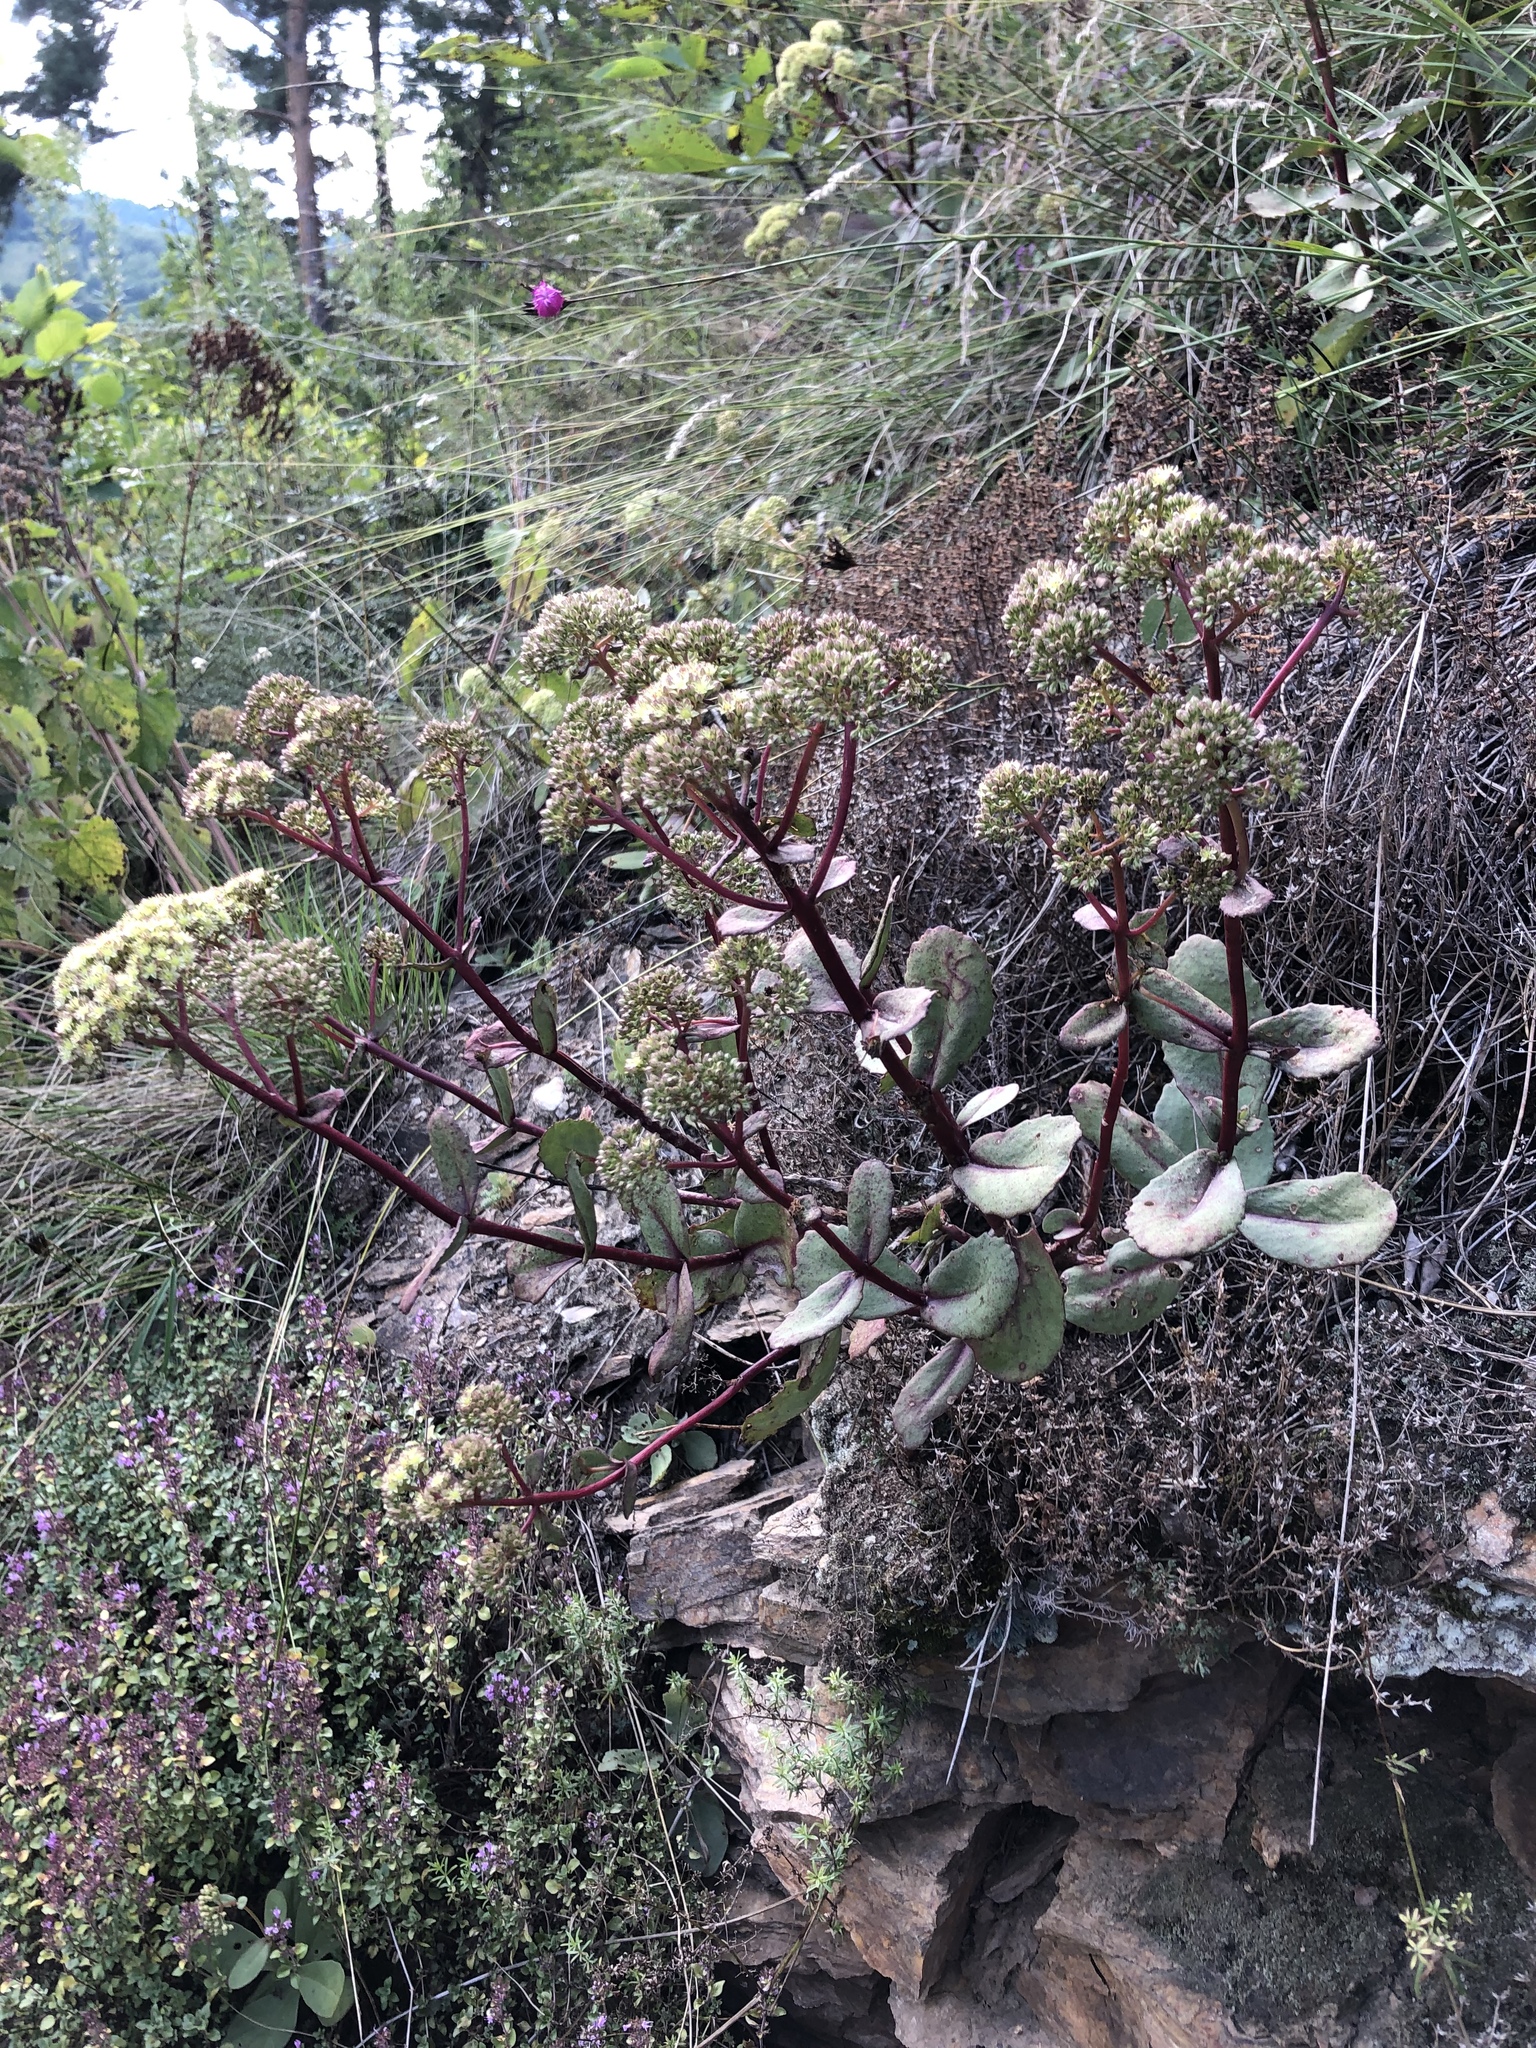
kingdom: Plantae
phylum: Tracheophyta
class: Magnoliopsida
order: Saxifragales
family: Crassulaceae
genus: Hylotelephium
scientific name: Hylotelephium maximum
